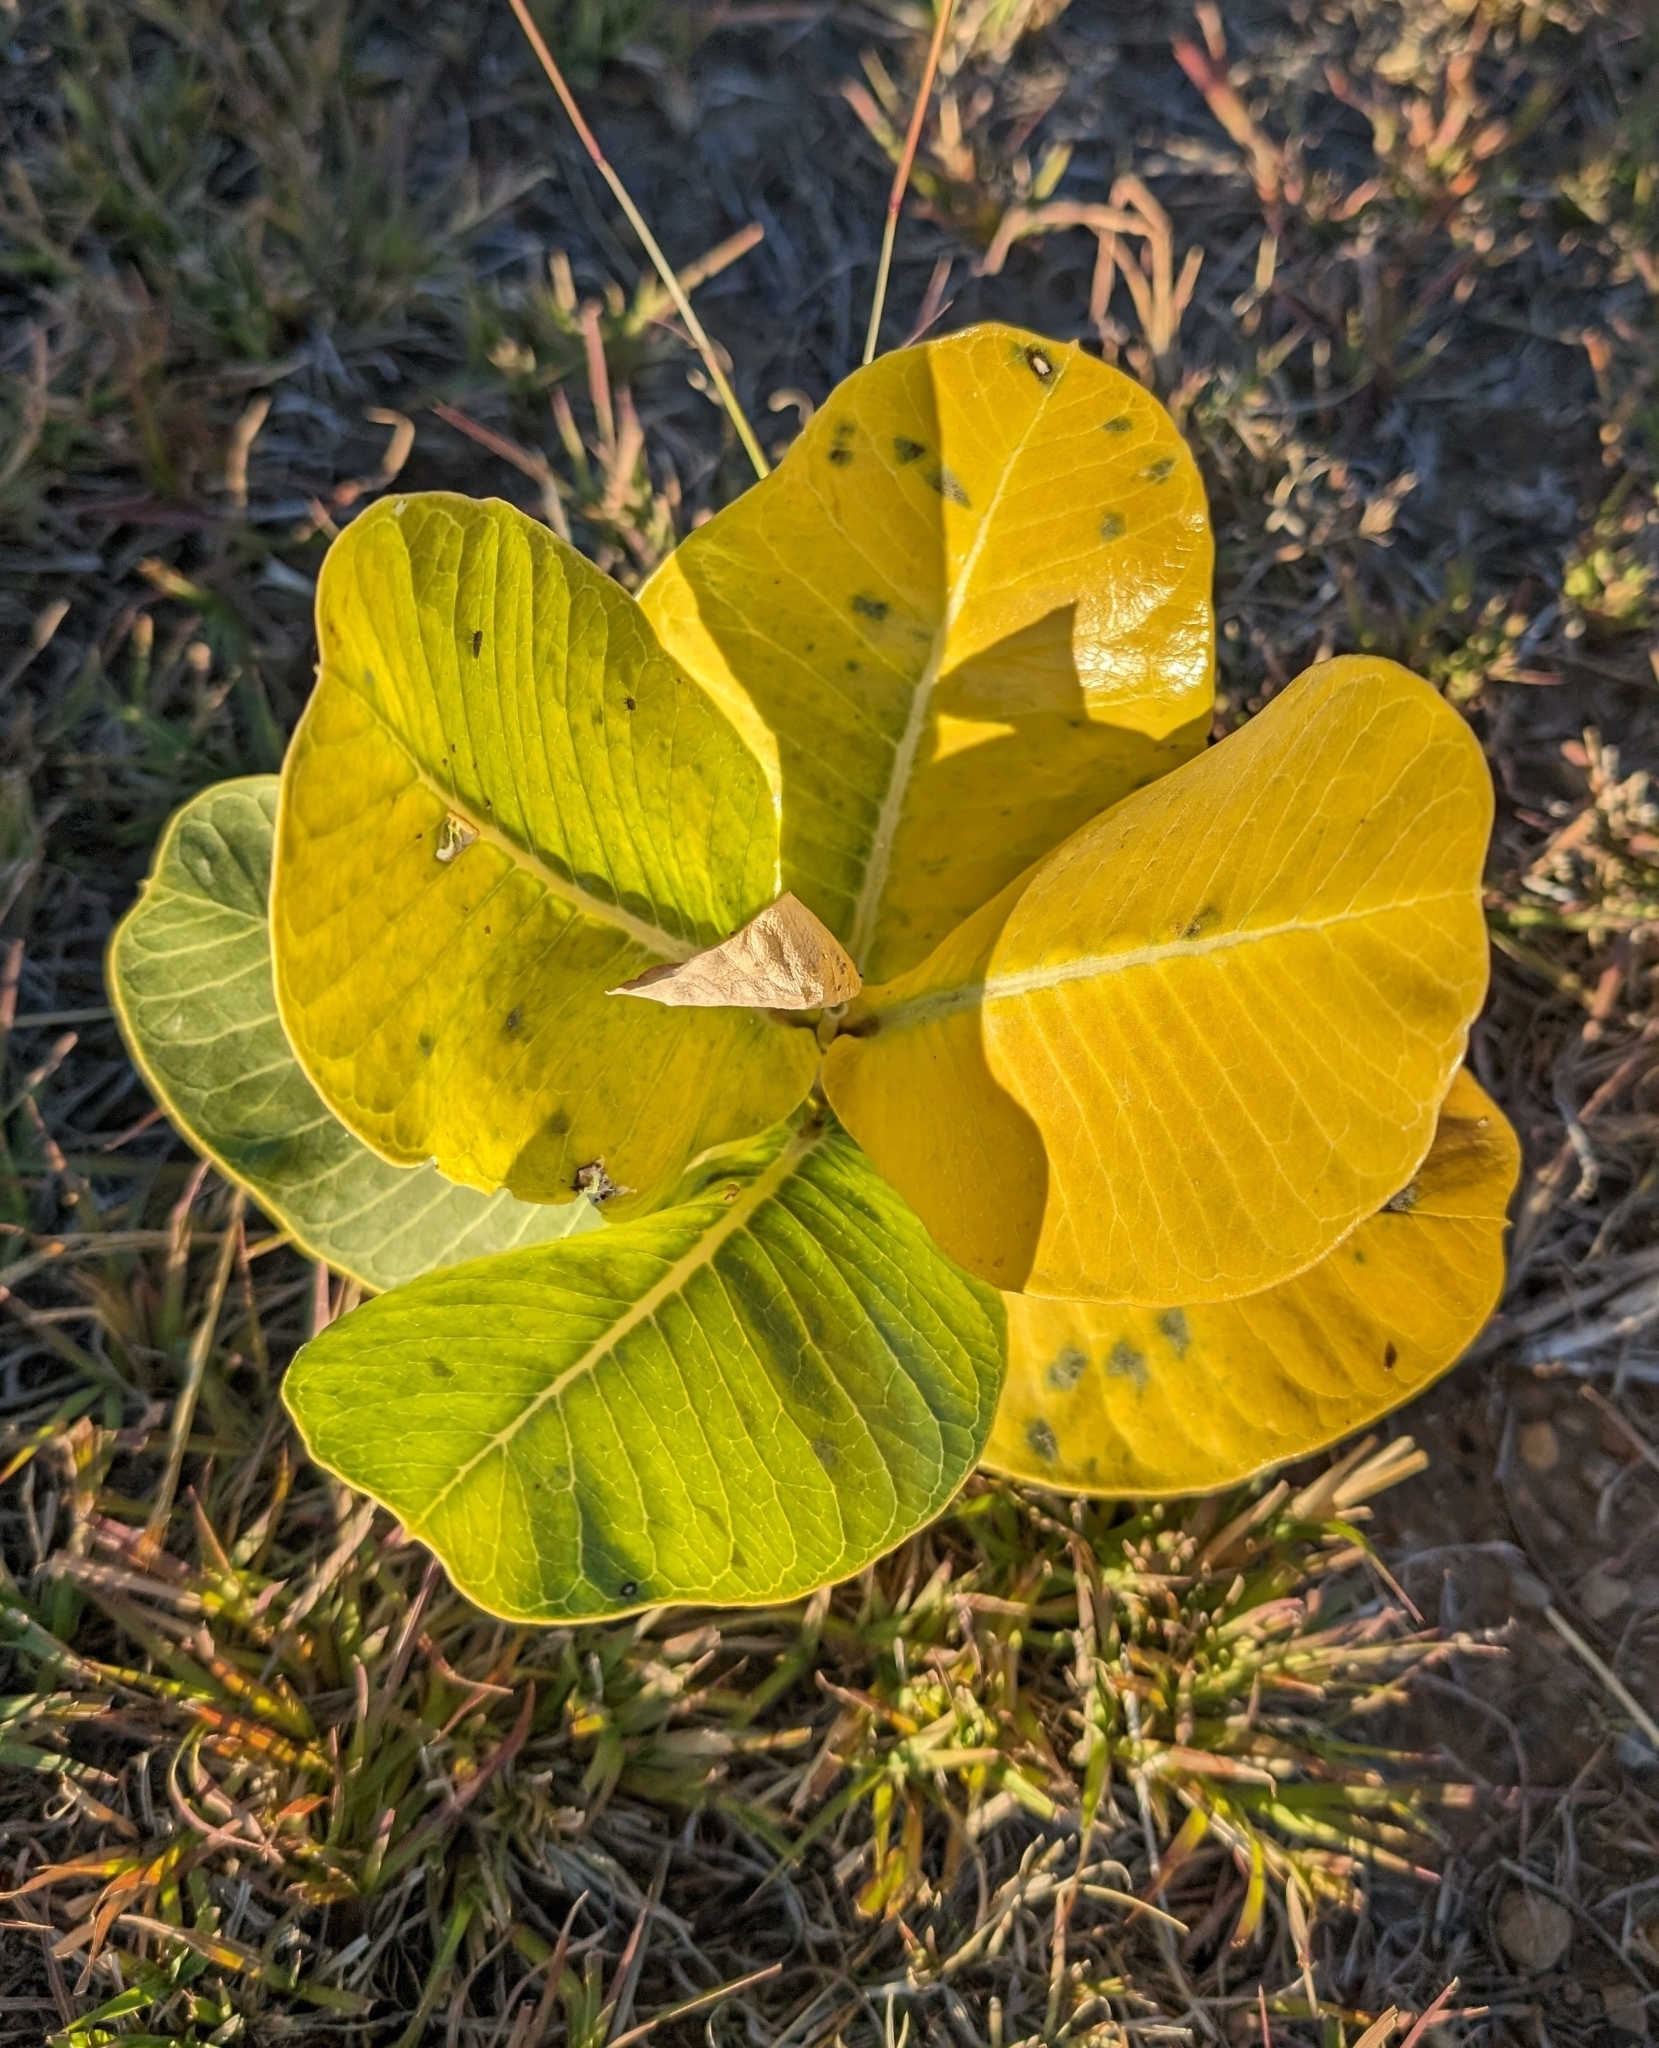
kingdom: Plantae
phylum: Tracheophyta
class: Magnoliopsida
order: Gentianales
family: Apocynaceae
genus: Asclepias
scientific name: Asclepias latifolia
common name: Broadleaf milkweed
